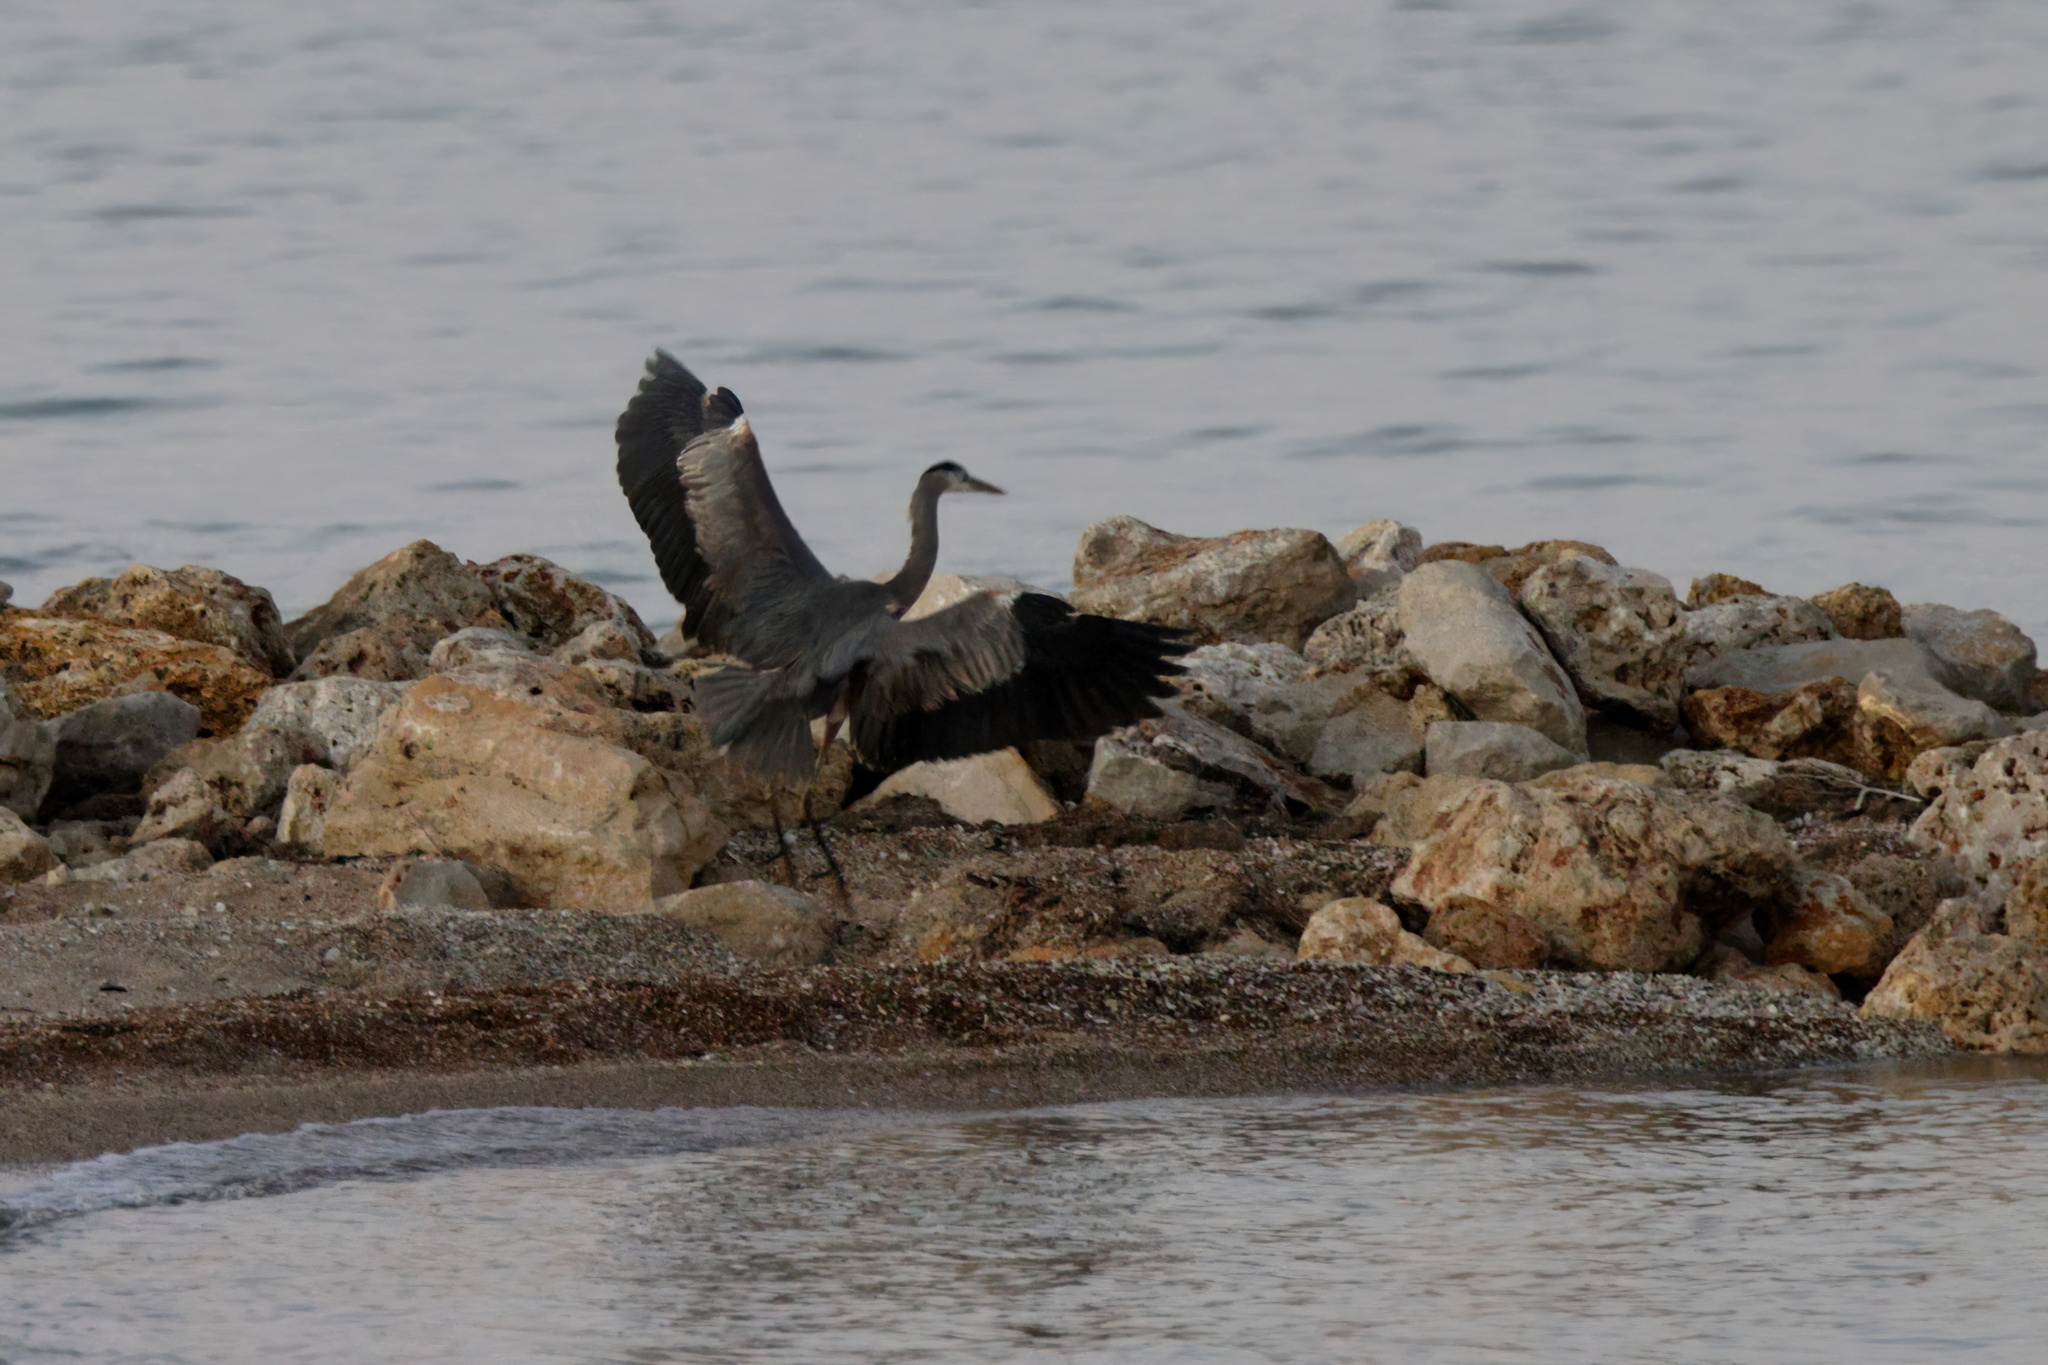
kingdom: Animalia
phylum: Chordata
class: Aves
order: Pelecaniformes
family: Ardeidae
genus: Ardea
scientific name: Ardea herodias
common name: Great blue heron
